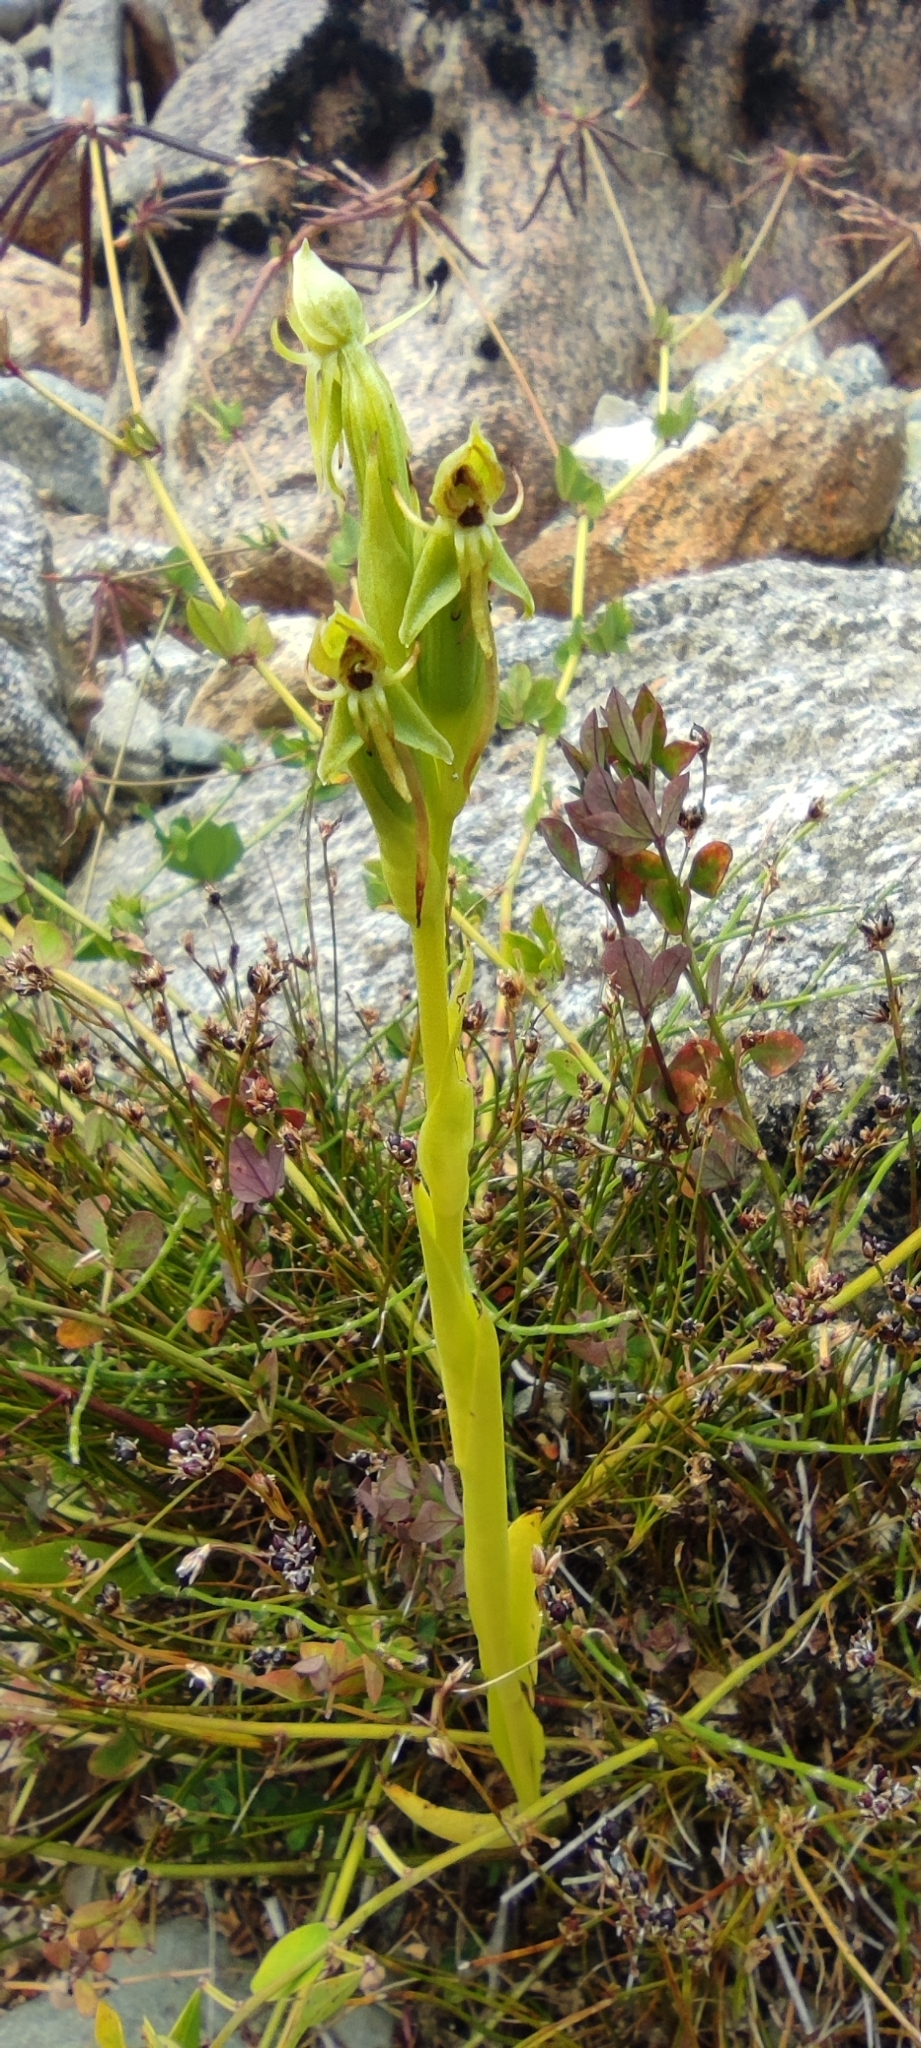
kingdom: Plantae
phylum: Tracheophyta
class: Liliopsida
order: Asparagales
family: Orchidaceae
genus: Habenaria
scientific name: Habenaria pumila
